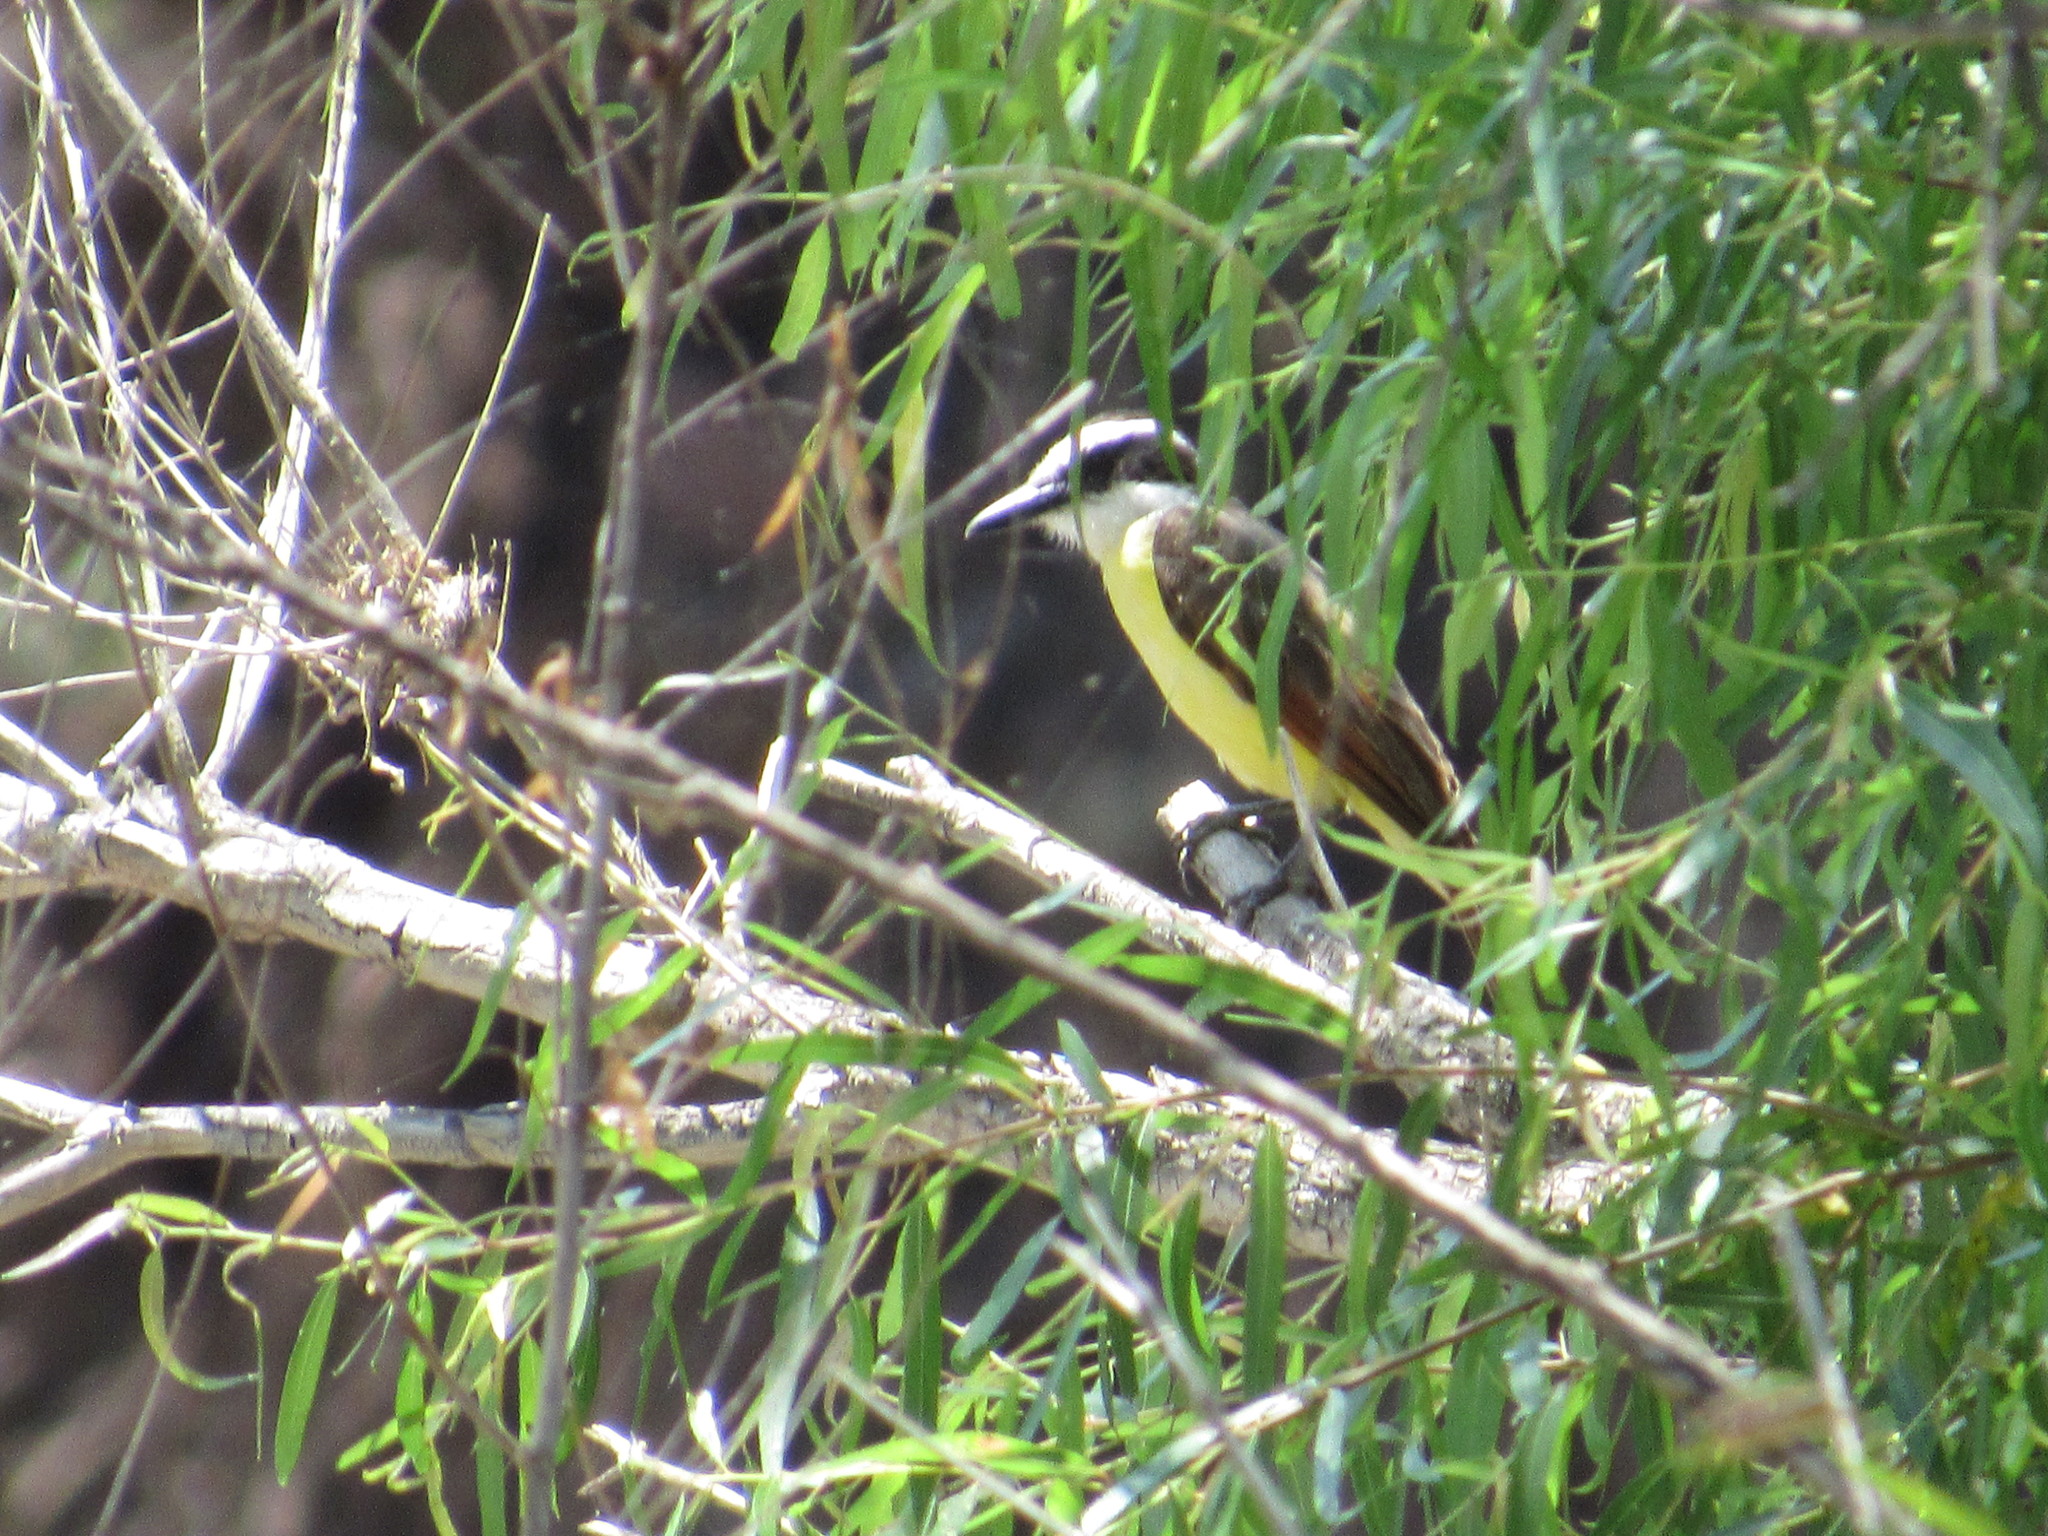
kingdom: Animalia
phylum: Chordata
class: Aves
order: Passeriformes
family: Tyrannidae
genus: Pitangus
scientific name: Pitangus sulphuratus
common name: Great kiskadee
